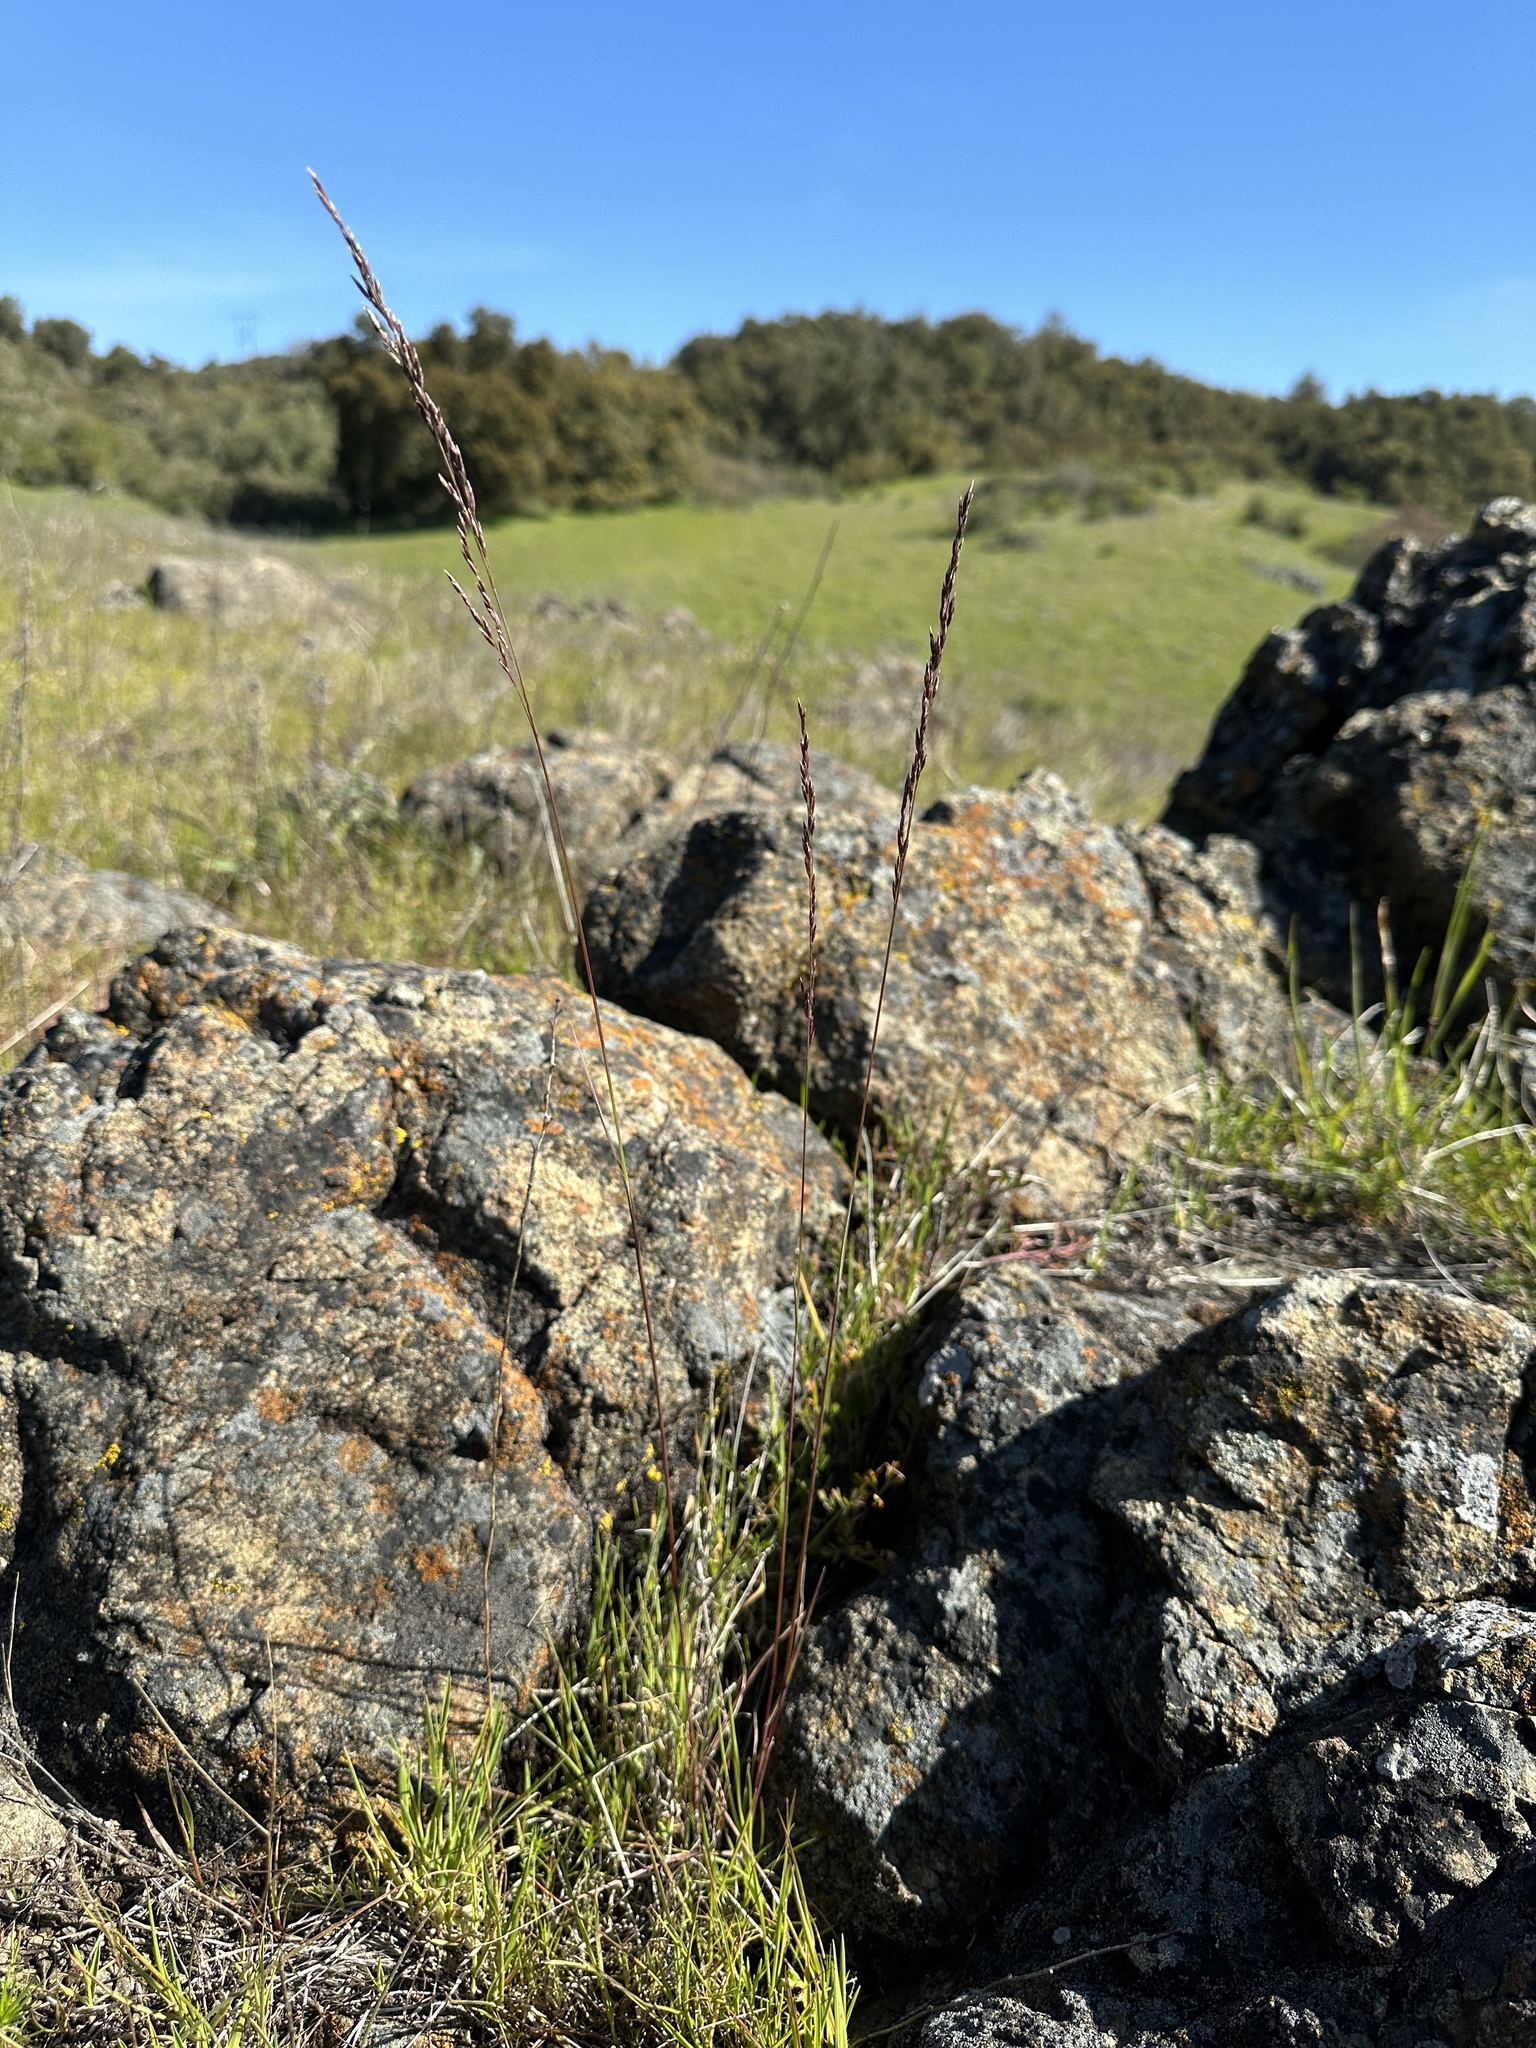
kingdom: Plantae
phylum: Tracheophyta
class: Liliopsida
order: Poales
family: Poaceae
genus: Poa
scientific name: Poa secunda
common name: Sandberg bluegrass
